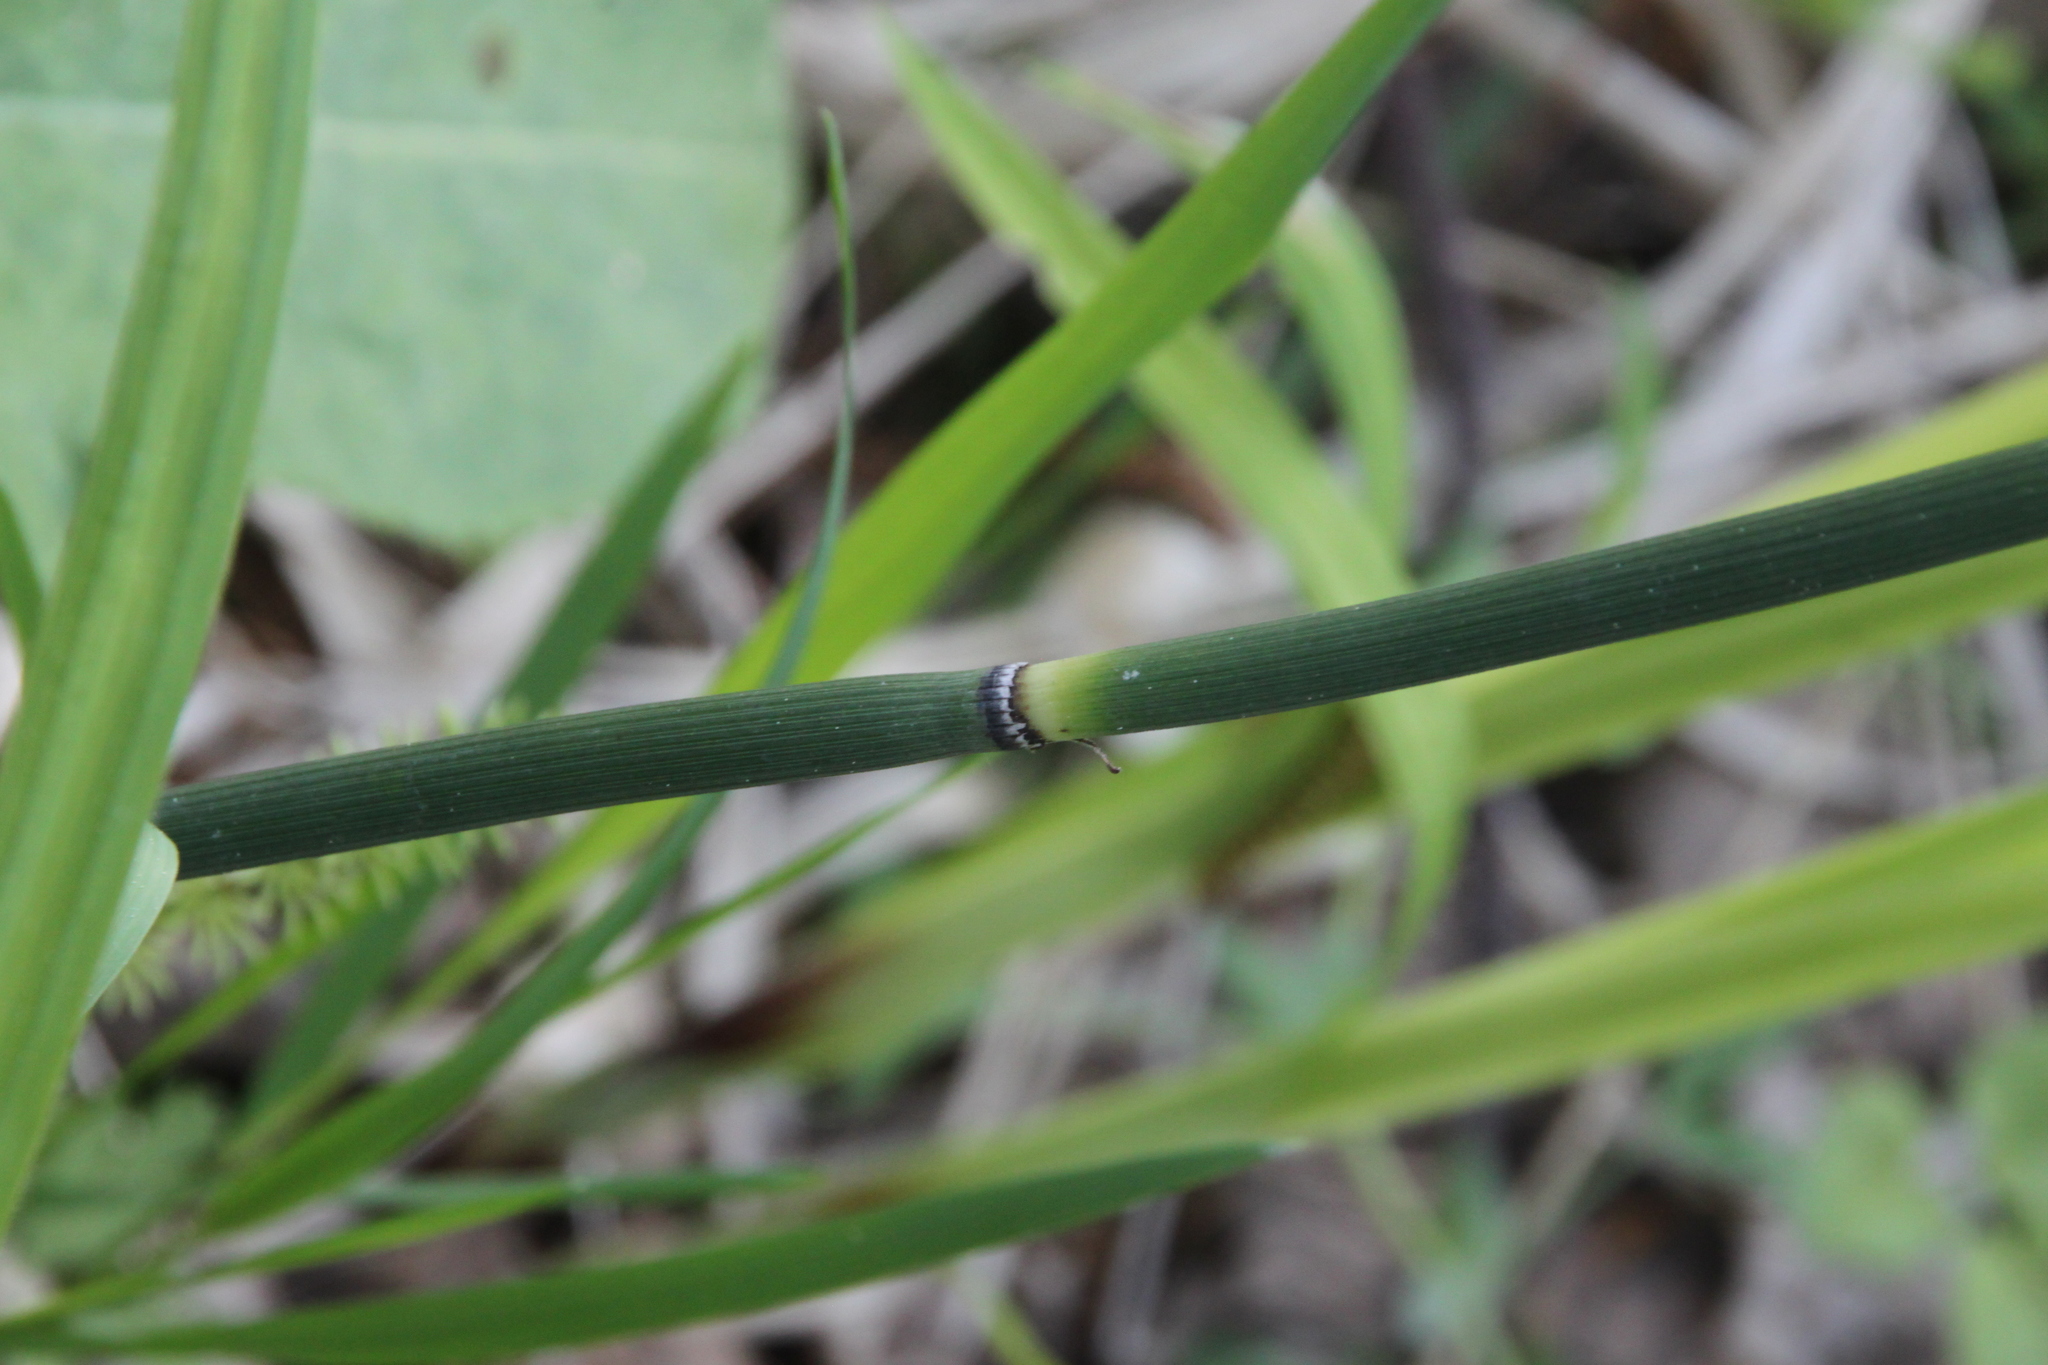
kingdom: Plantae
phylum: Tracheophyta
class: Polypodiopsida
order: Equisetales
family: Equisetaceae
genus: Equisetum
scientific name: Equisetum hyemale
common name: Rough horsetail
